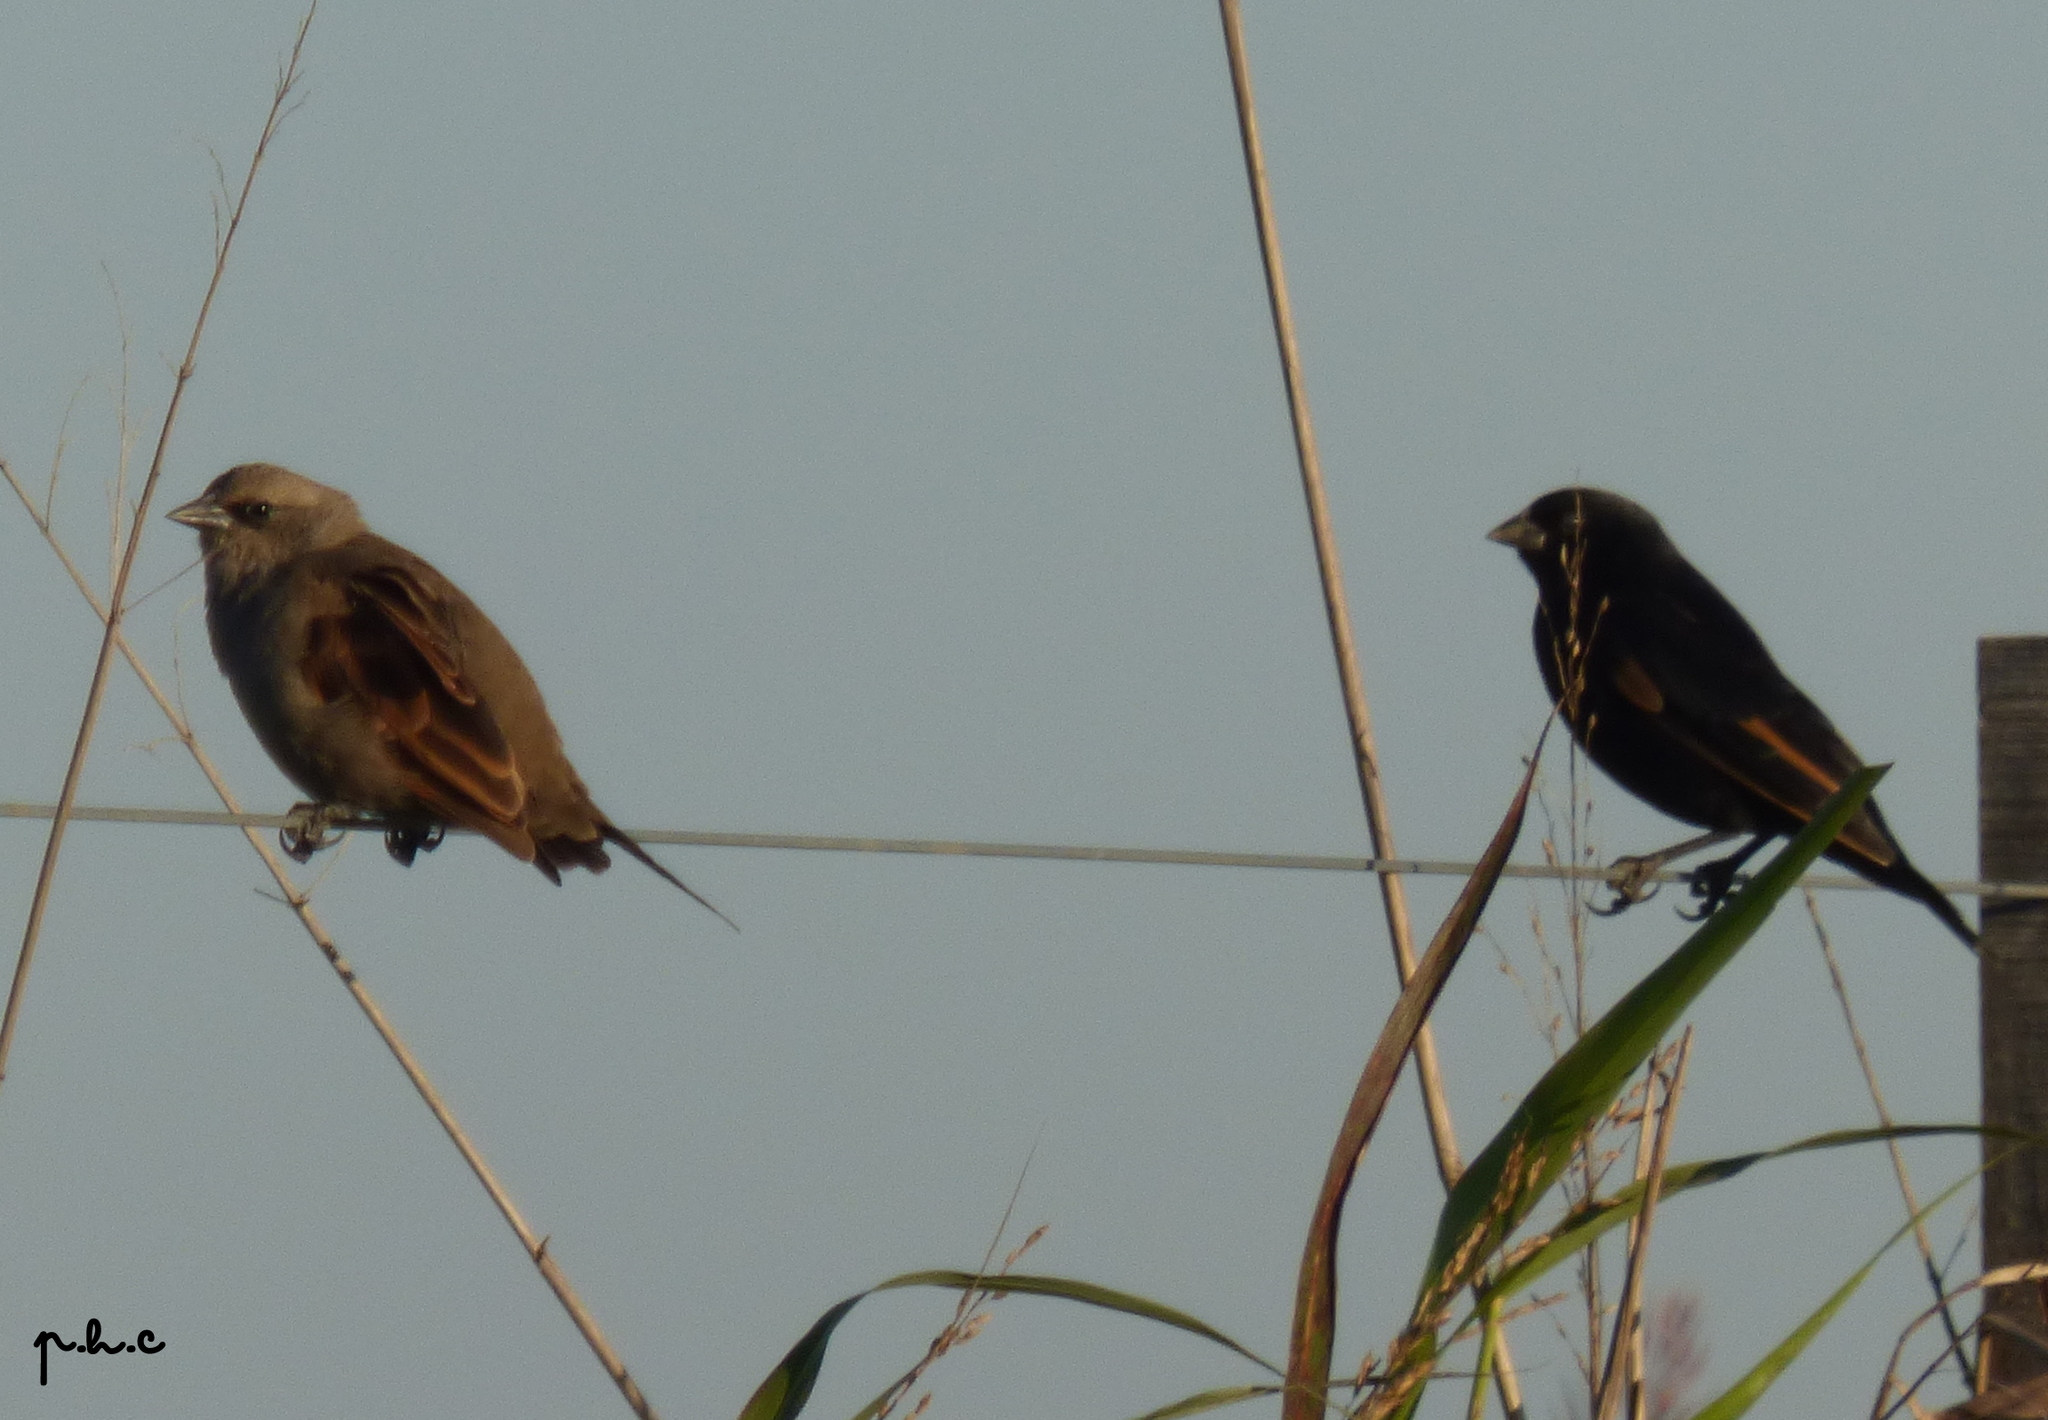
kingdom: Animalia
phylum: Chordata
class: Aves
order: Passeriformes
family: Icteridae
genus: Molothrus
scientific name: Molothrus rufoaxillaris
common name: Screaming cowbird
